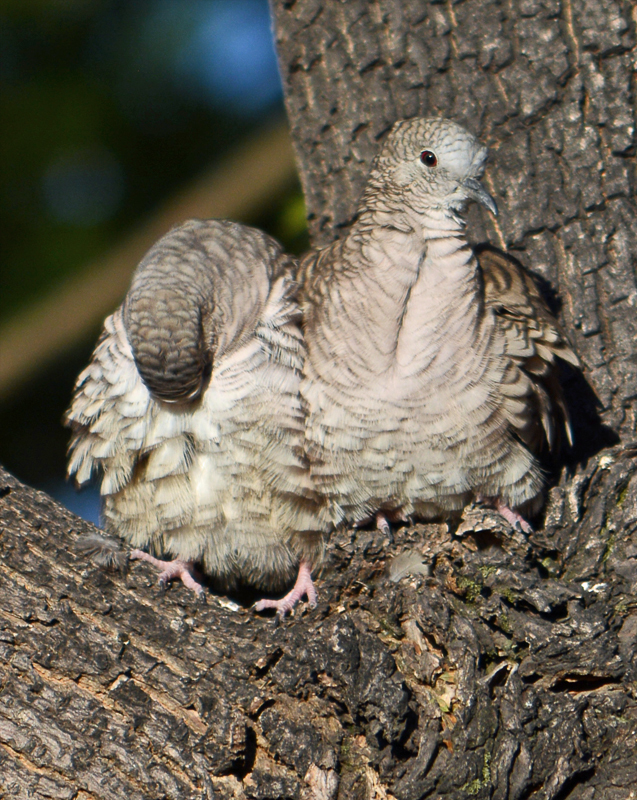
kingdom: Animalia
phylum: Chordata
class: Aves
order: Columbiformes
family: Columbidae
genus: Columbina
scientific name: Columbina inca
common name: Inca dove
